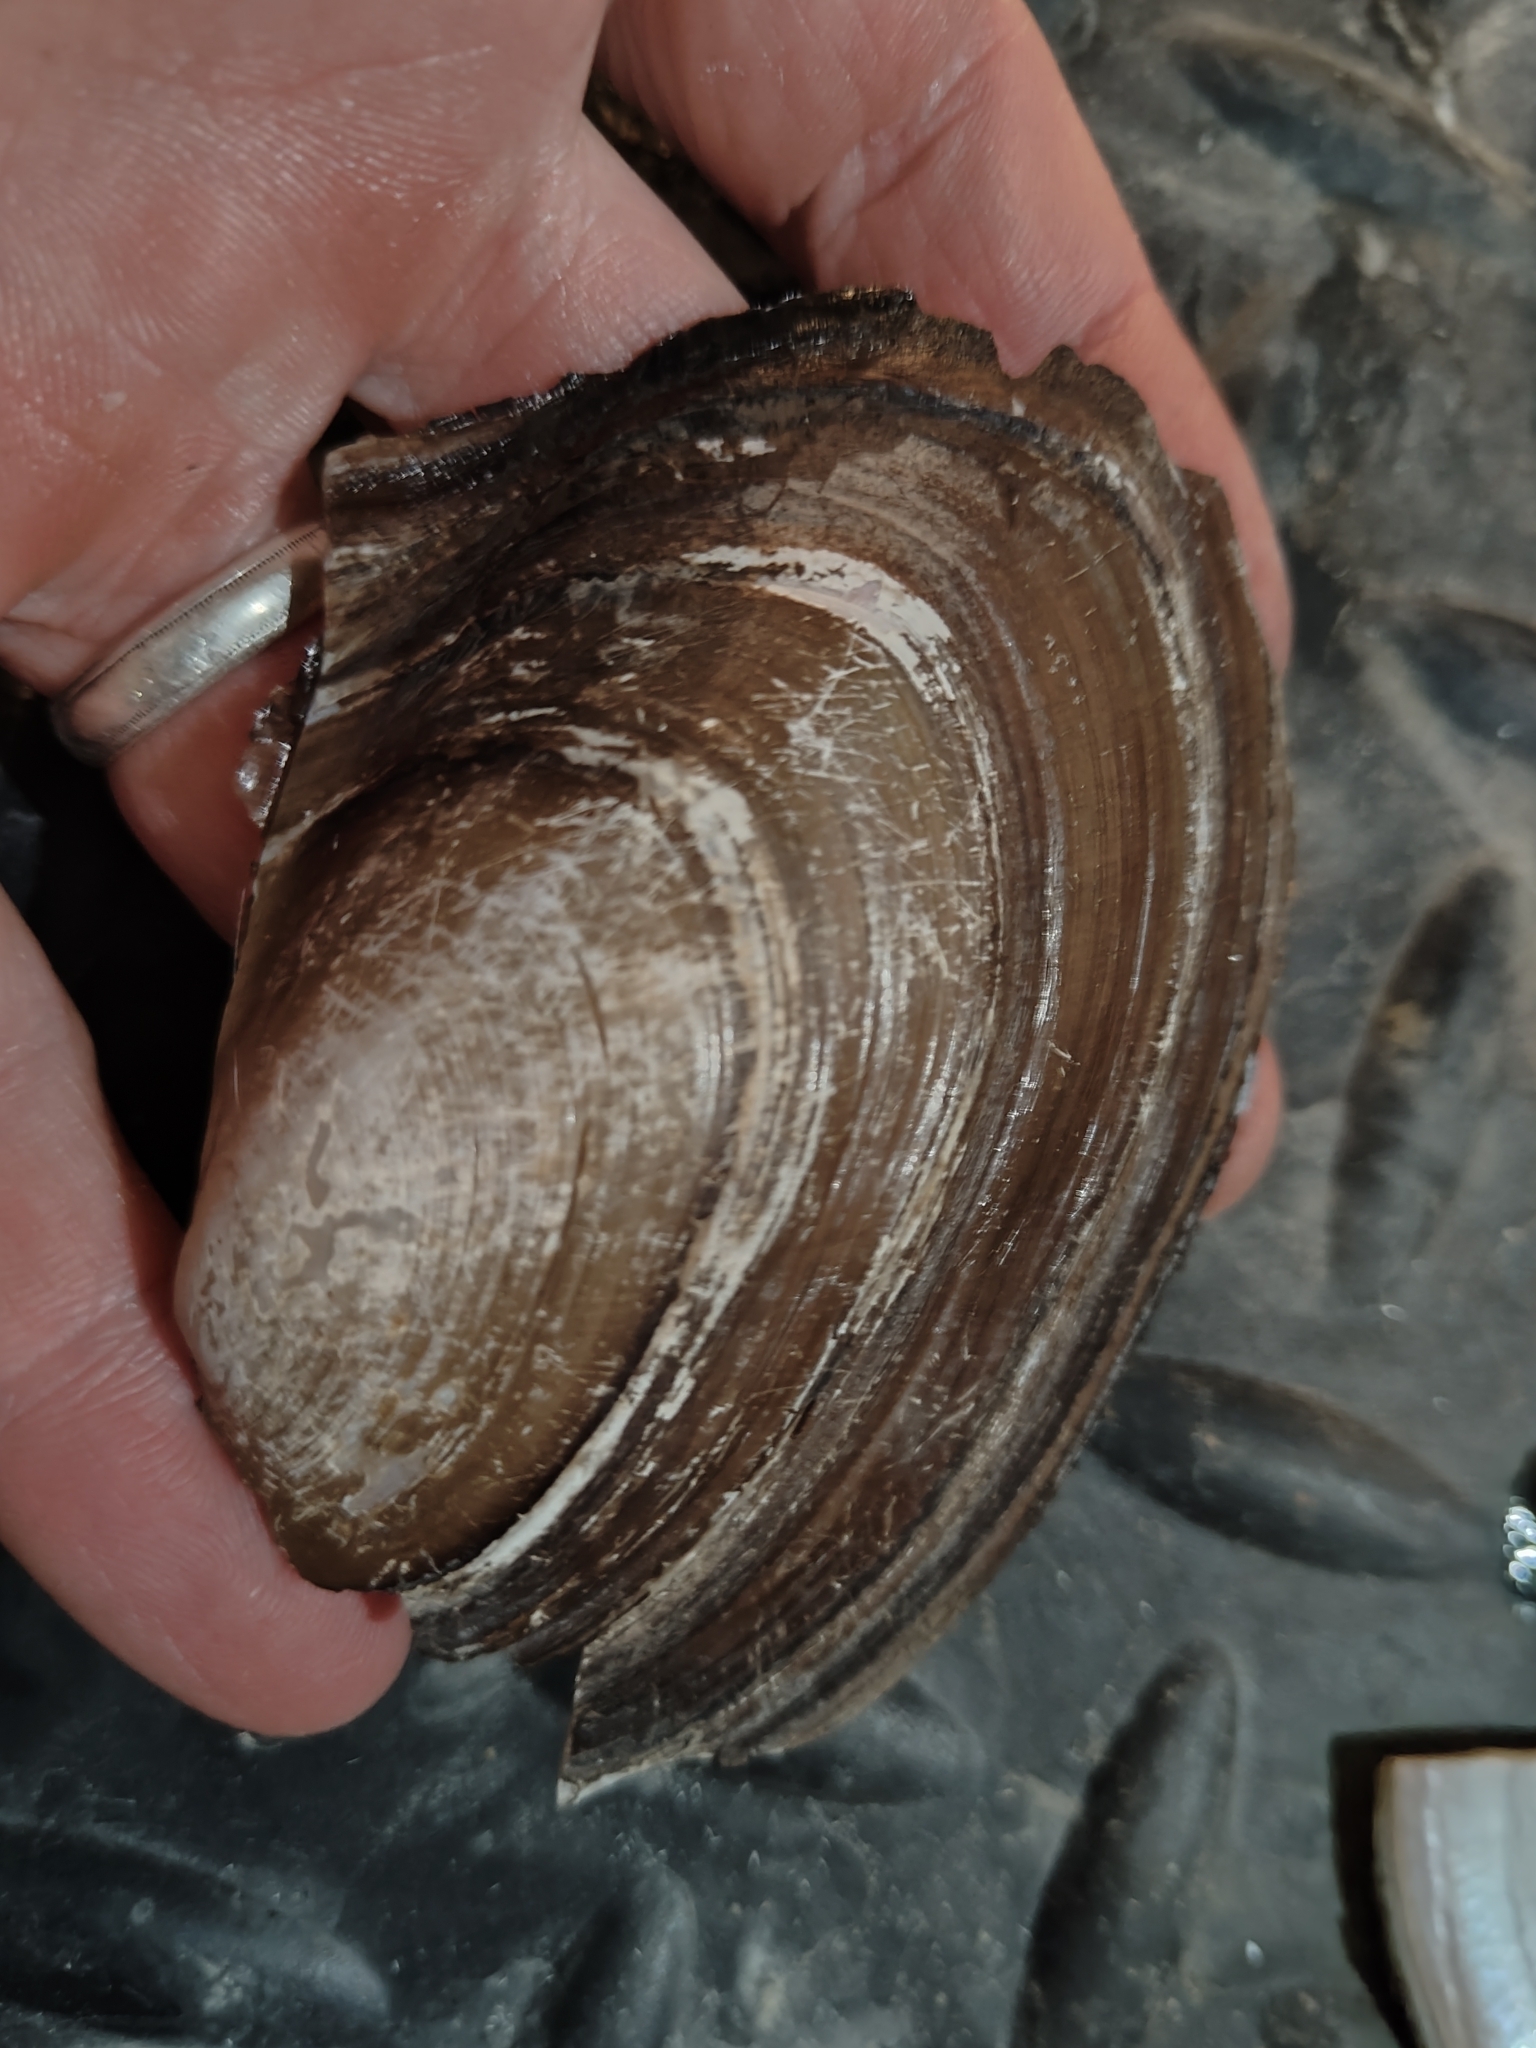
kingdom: Animalia
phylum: Mollusca
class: Bivalvia
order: Unionida
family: Unionidae
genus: Potamilus
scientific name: Potamilus ohiensis
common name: Pink papershell
